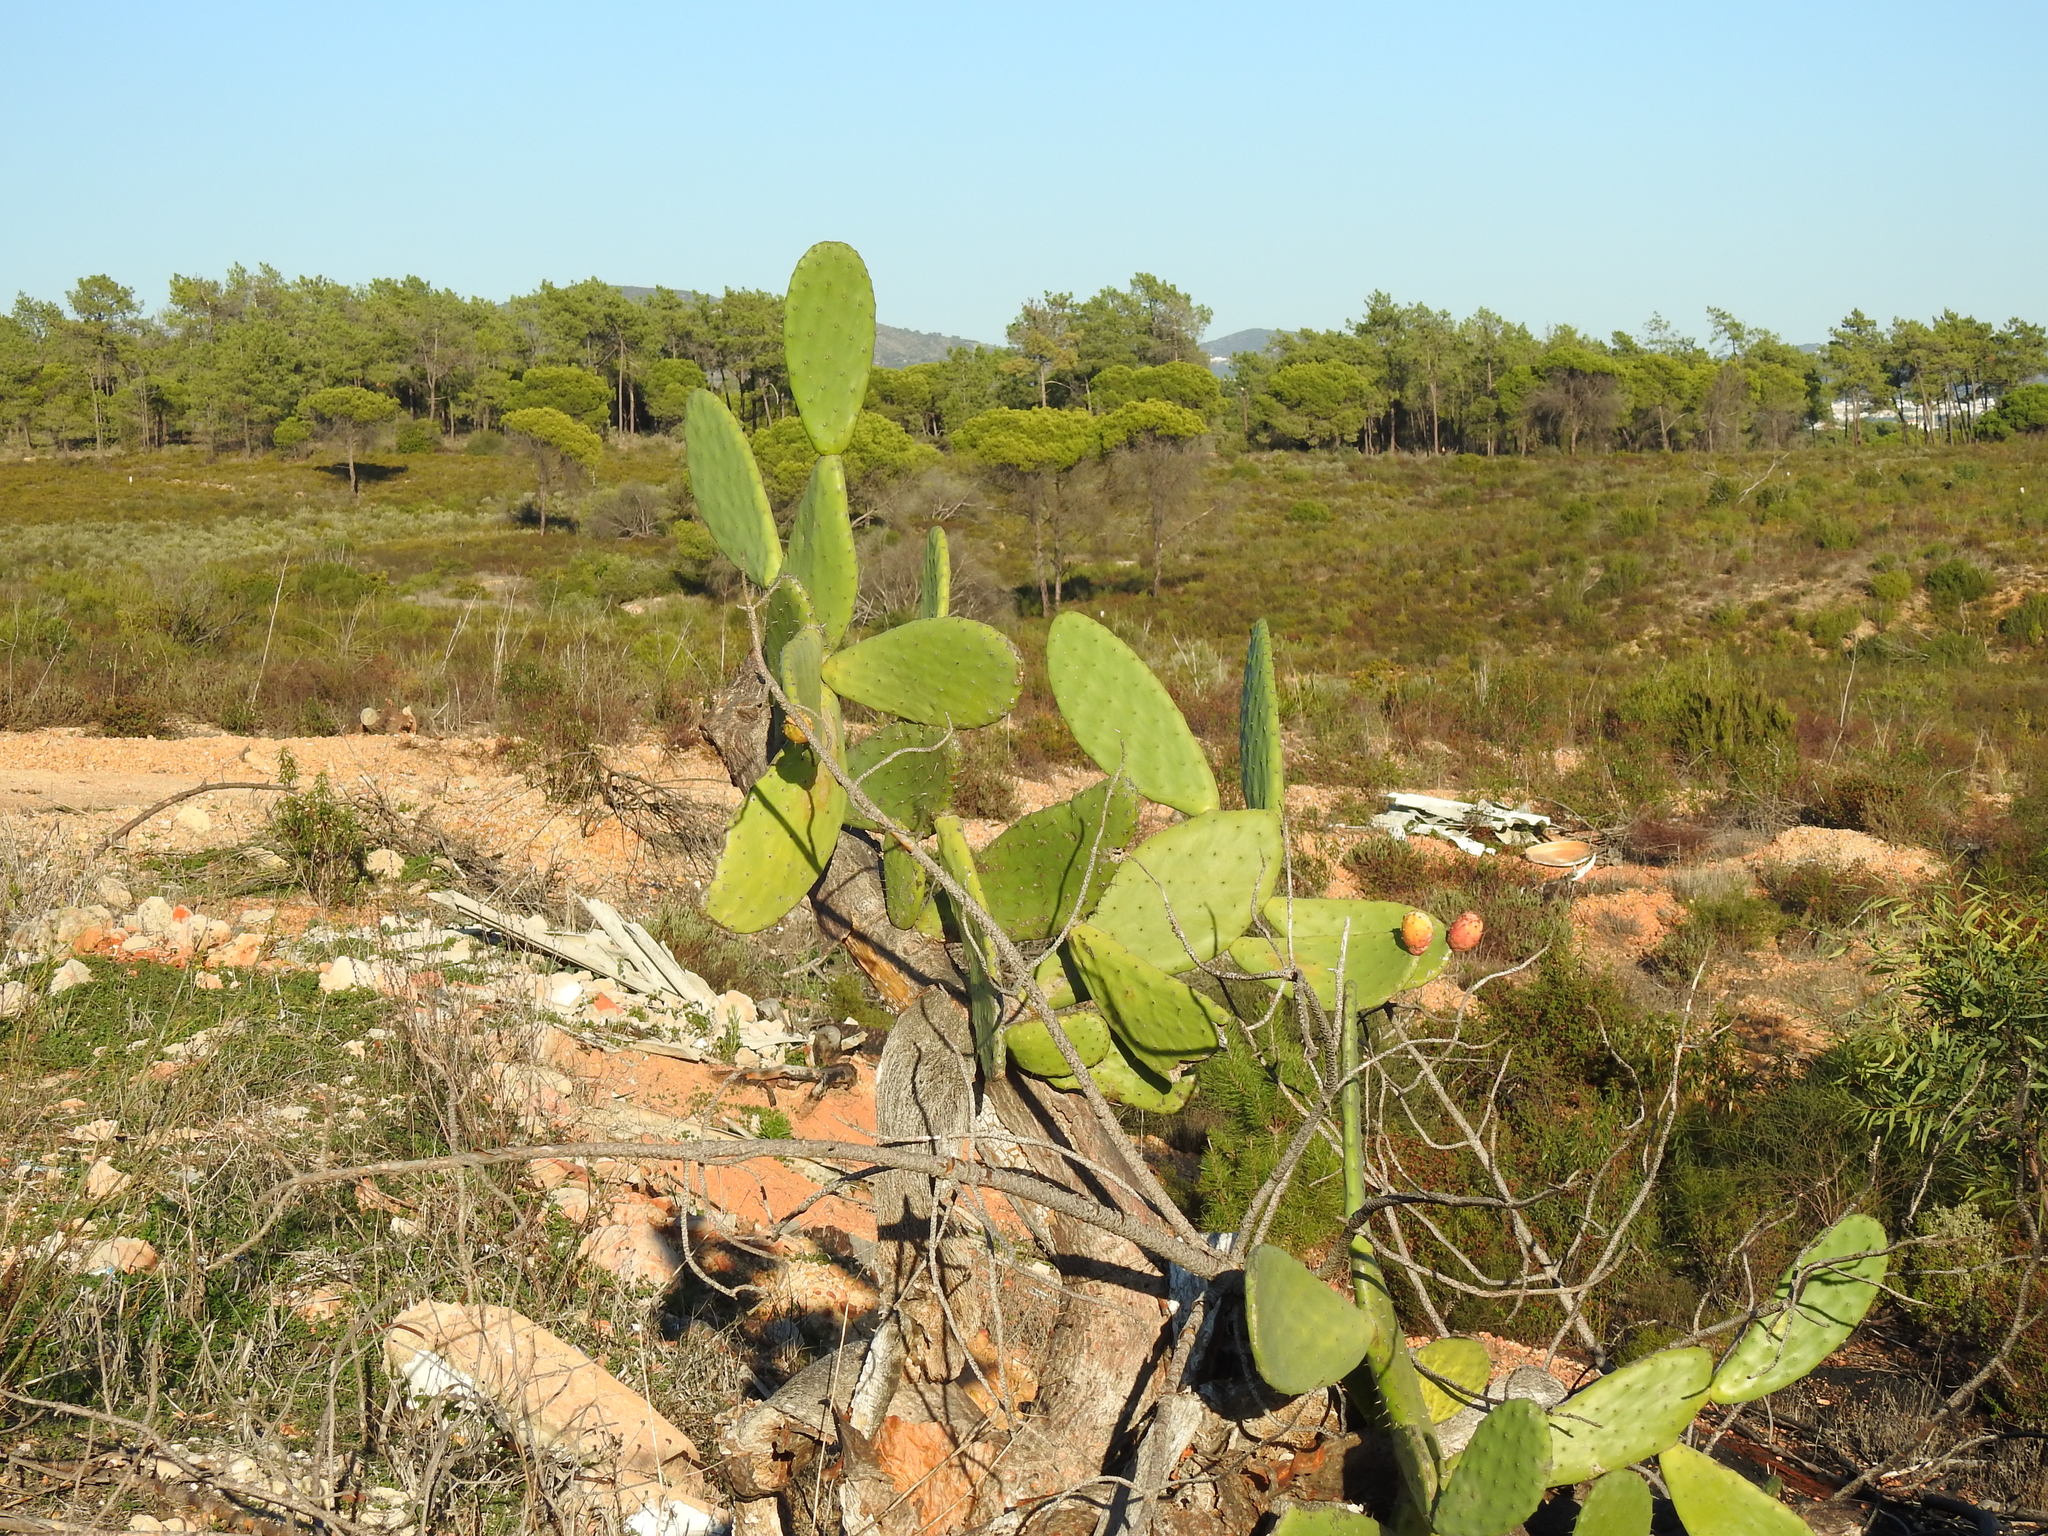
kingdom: Plantae
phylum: Tracheophyta
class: Magnoliopsida
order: Caryophyllales
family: Cactaceae
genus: Opuntia
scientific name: Opuntia ficus-indica
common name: Barbary fig
